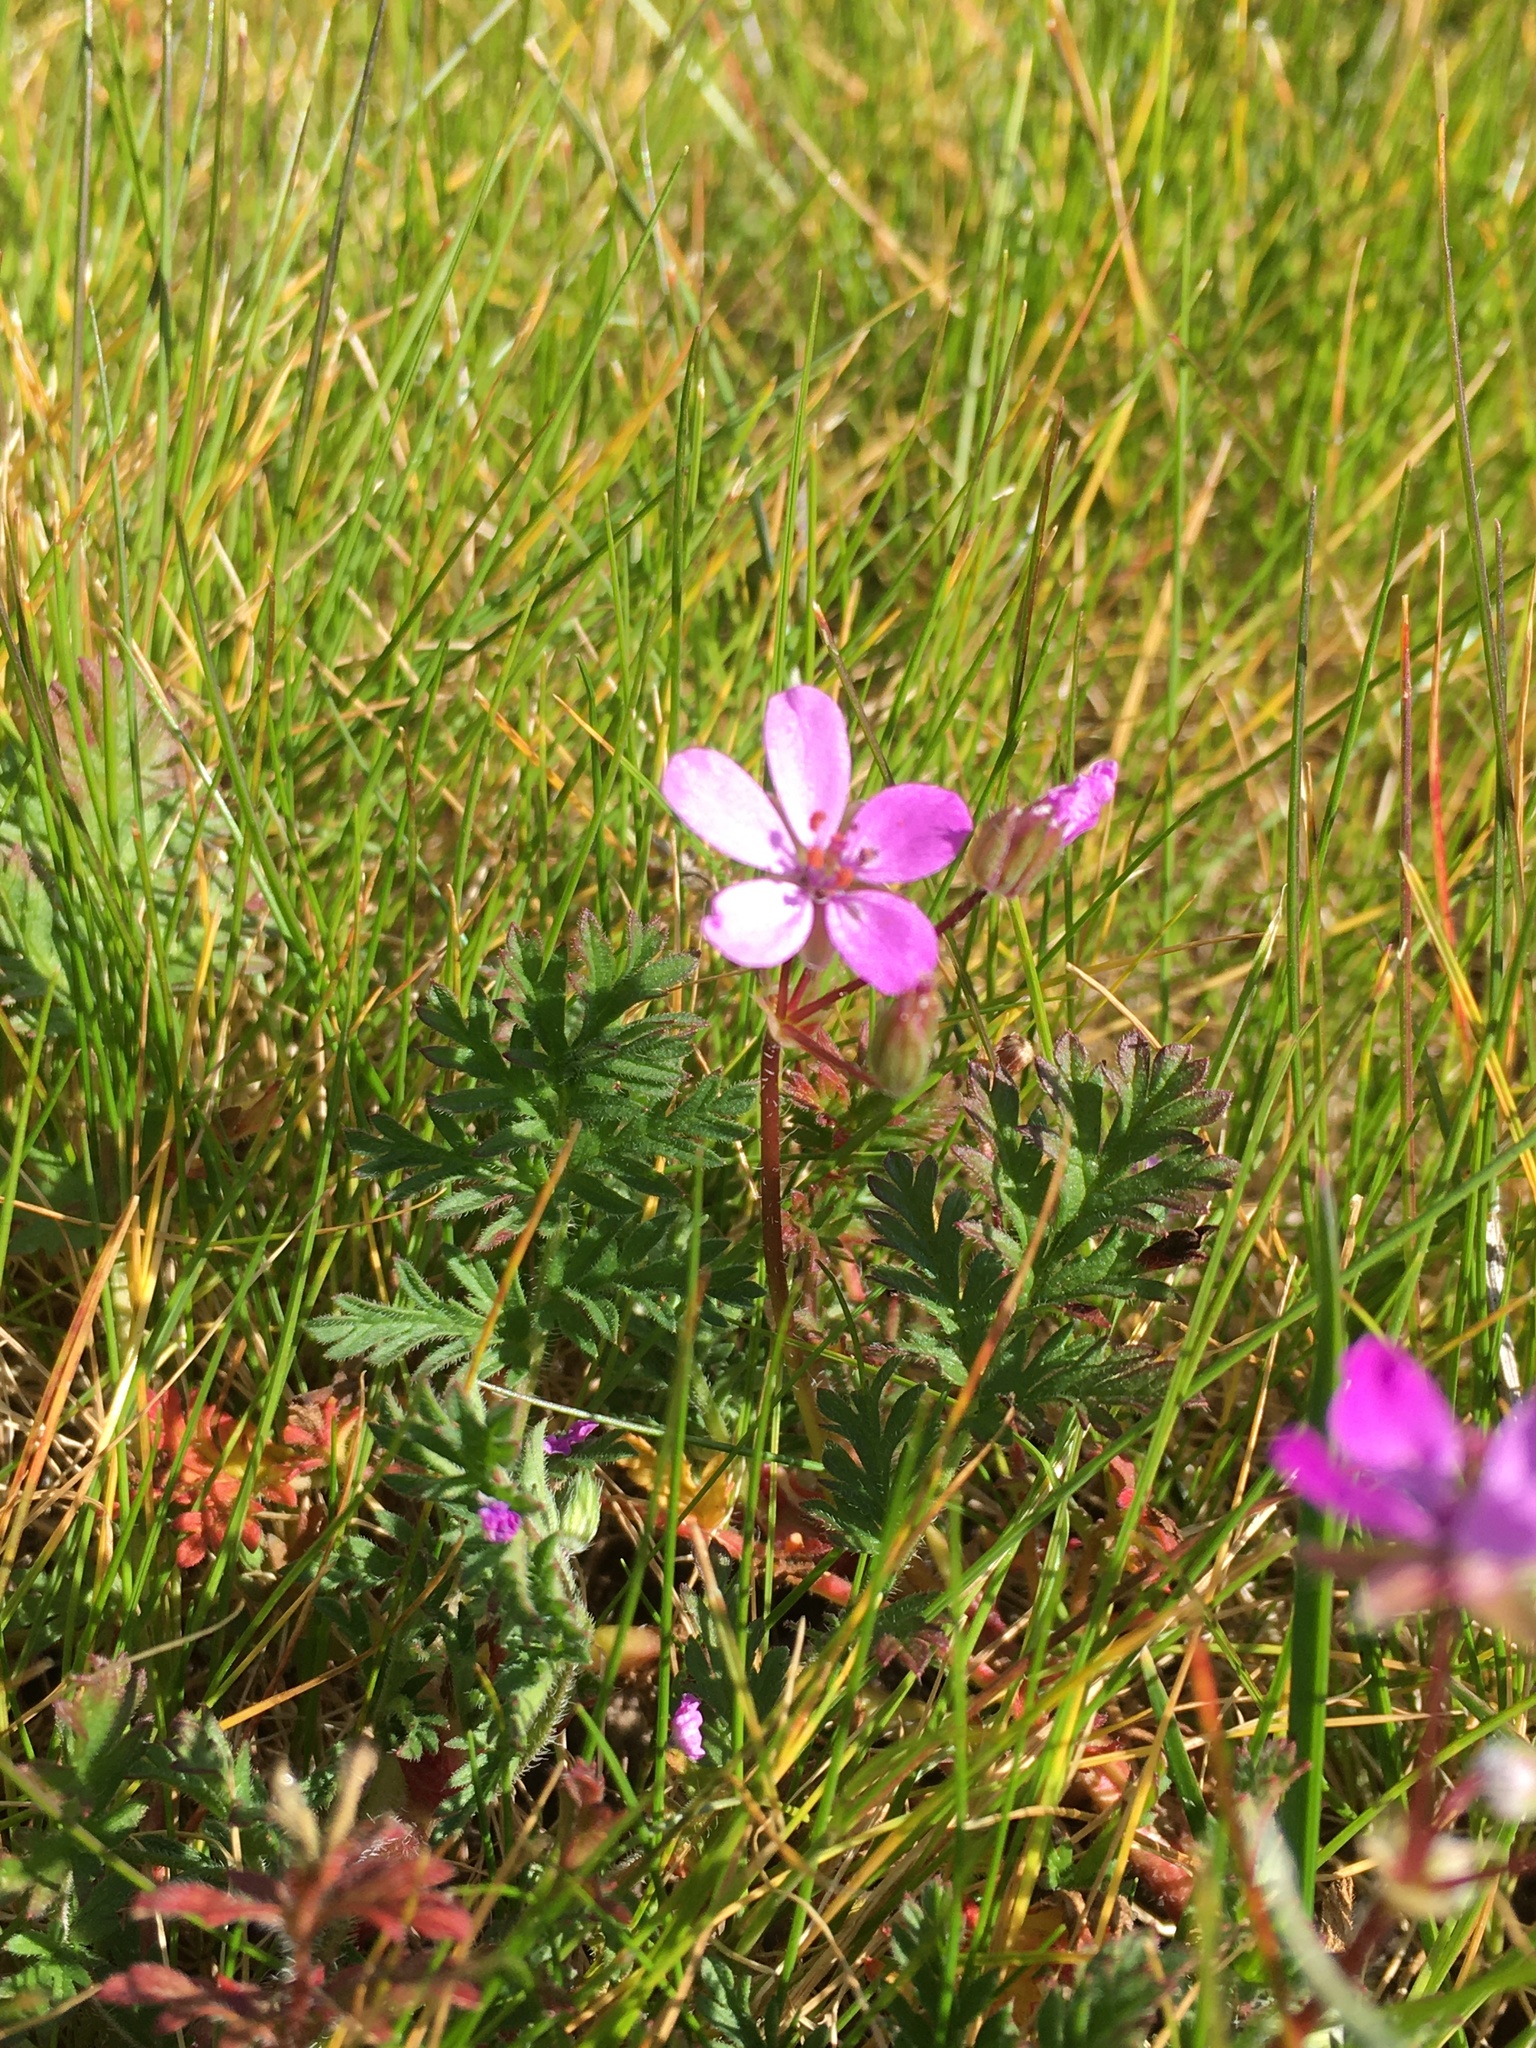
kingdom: Plantae
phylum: Tracheophyta
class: Magnoliopsida
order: Geraniales
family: Geraniaceae
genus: Erodium
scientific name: Erodium cicutarium
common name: Common stork's-bill
